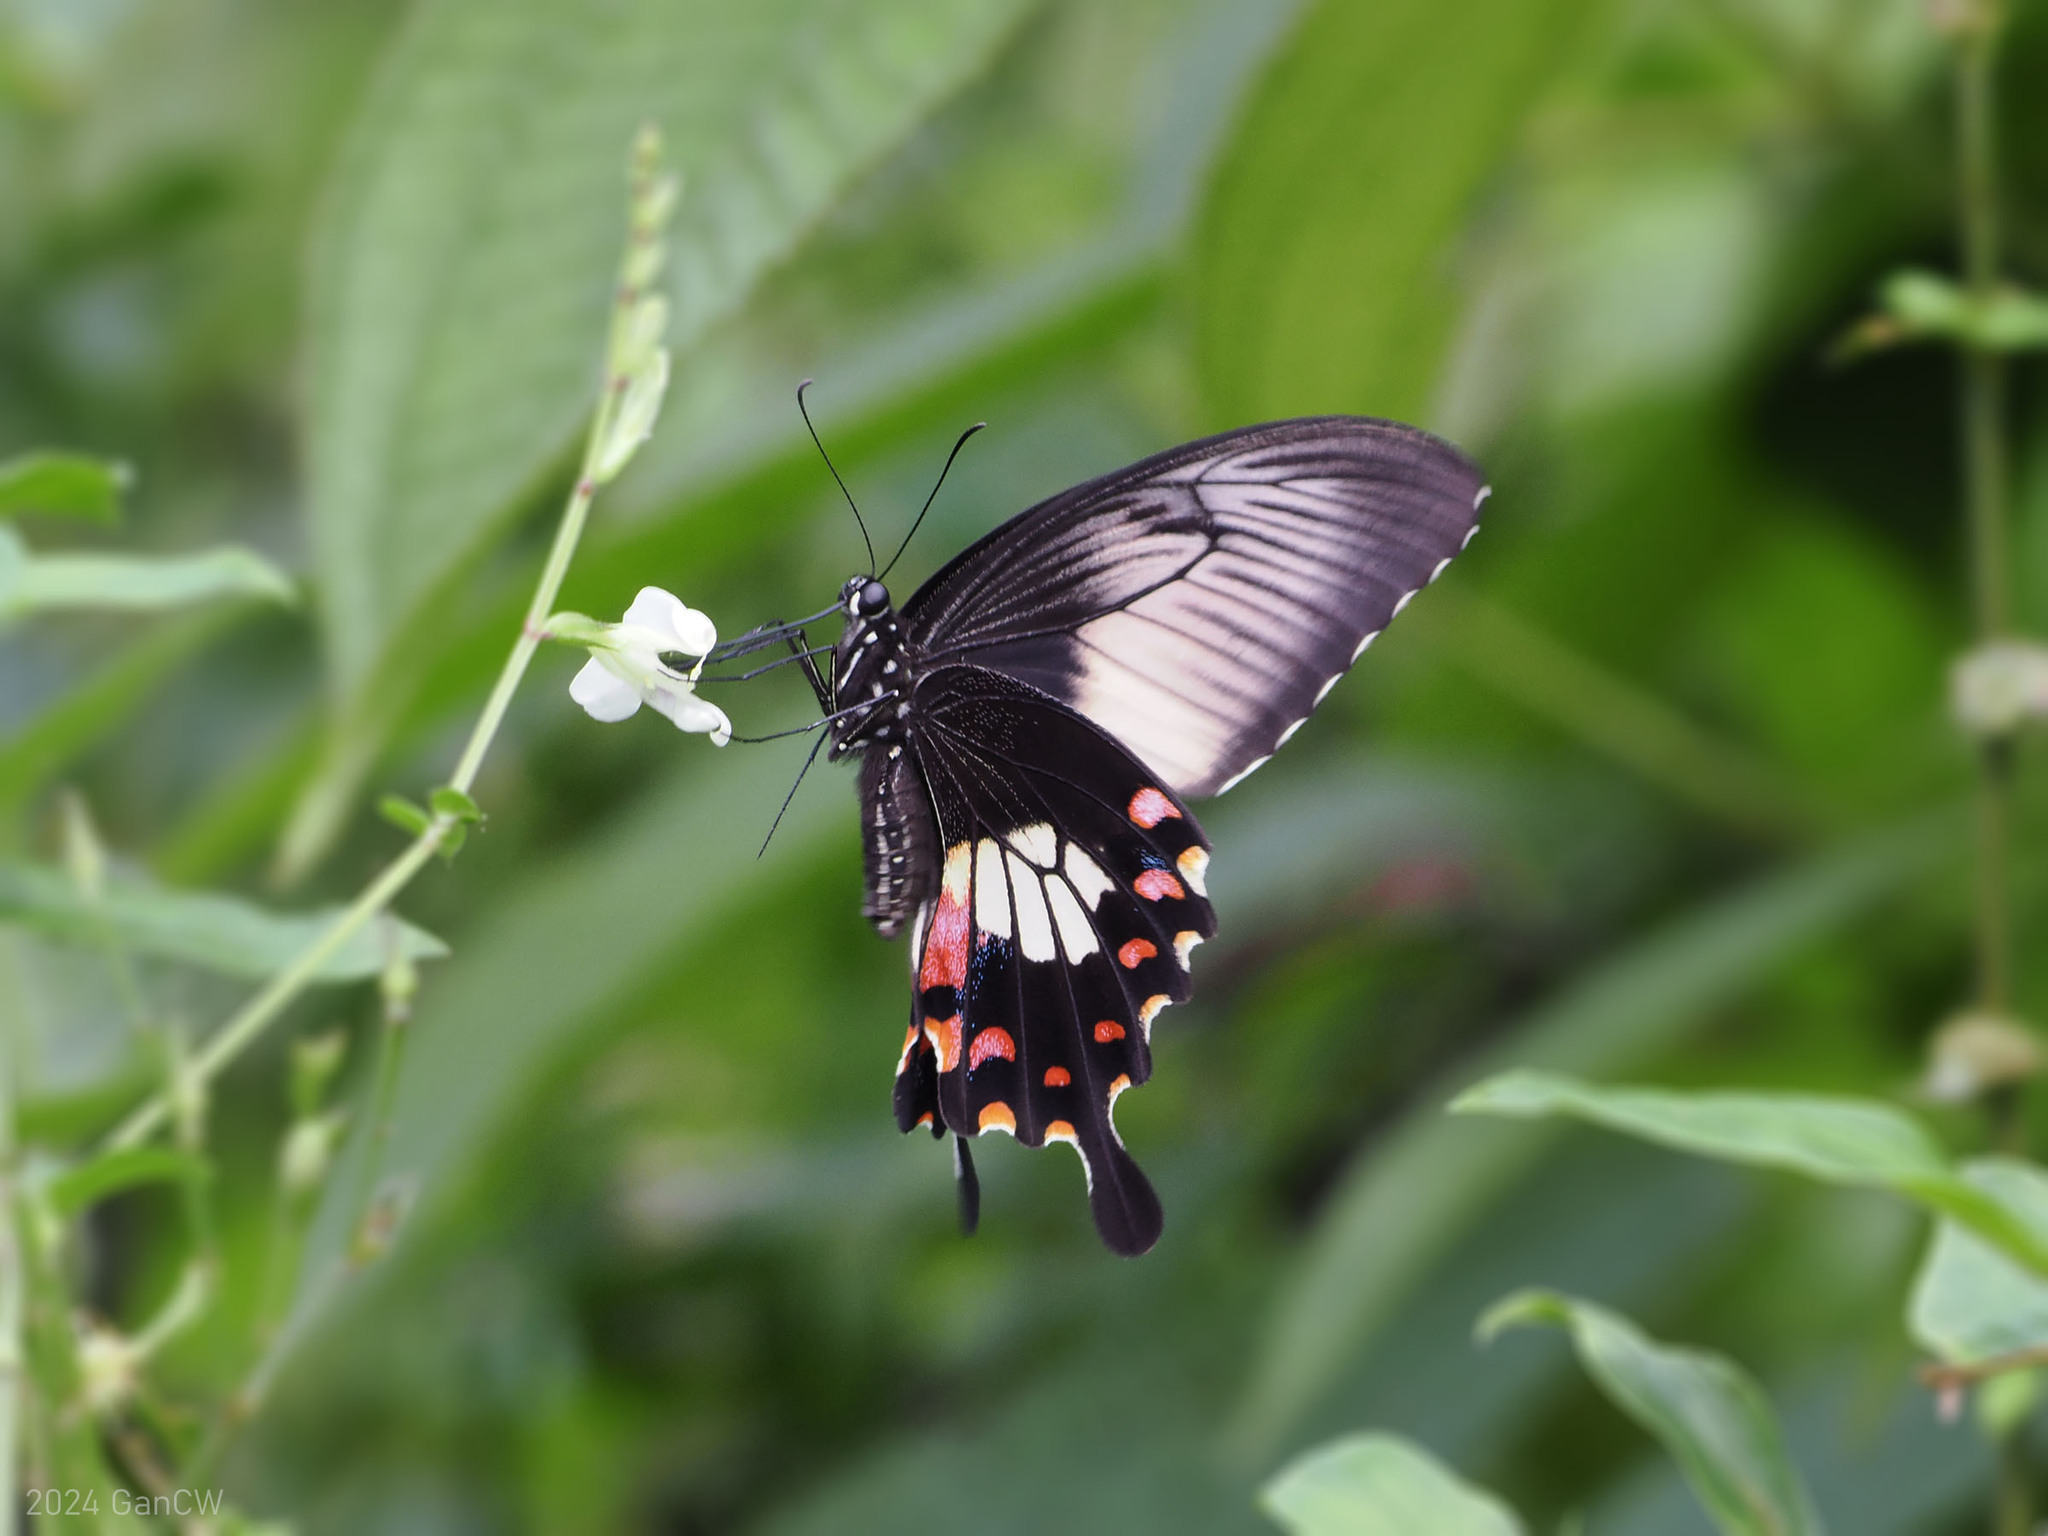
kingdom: Animalia
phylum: Arthropoda
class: Insecta
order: Lepidoptera
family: Papilionidae
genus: Papilio
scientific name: Papilio polytes
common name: Common mormon
